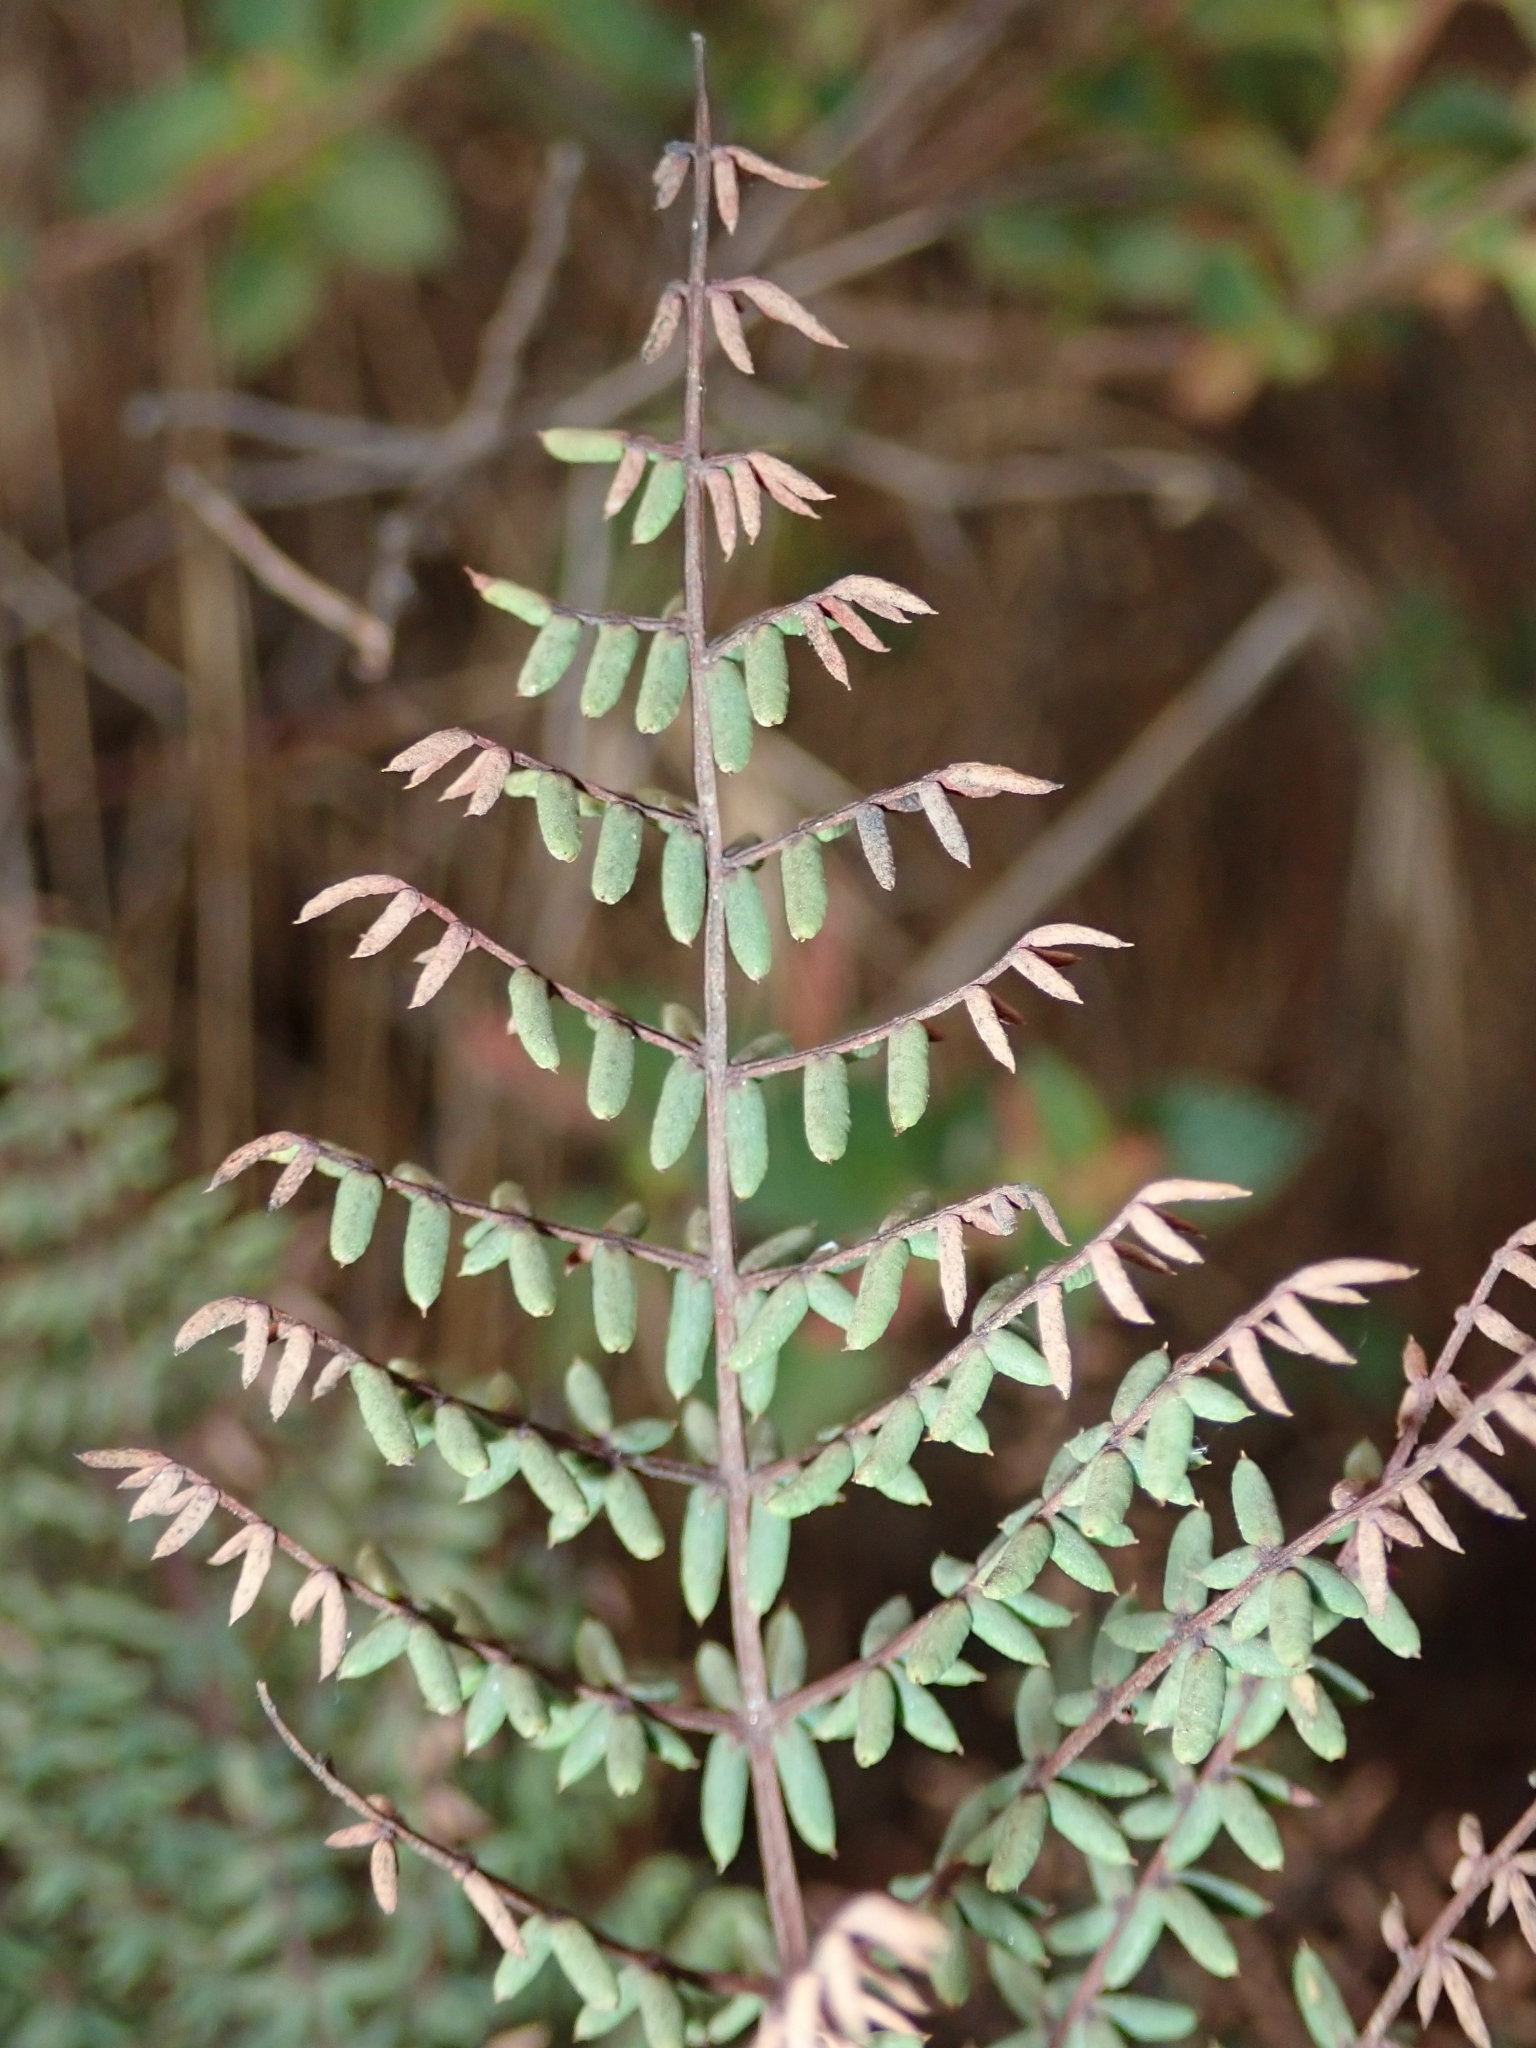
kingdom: Plantae
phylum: Tracheophyta
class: Polypodiopsida
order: Polypodiales
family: Pteridaceae
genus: Pellaea
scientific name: Pellaea mucronata
